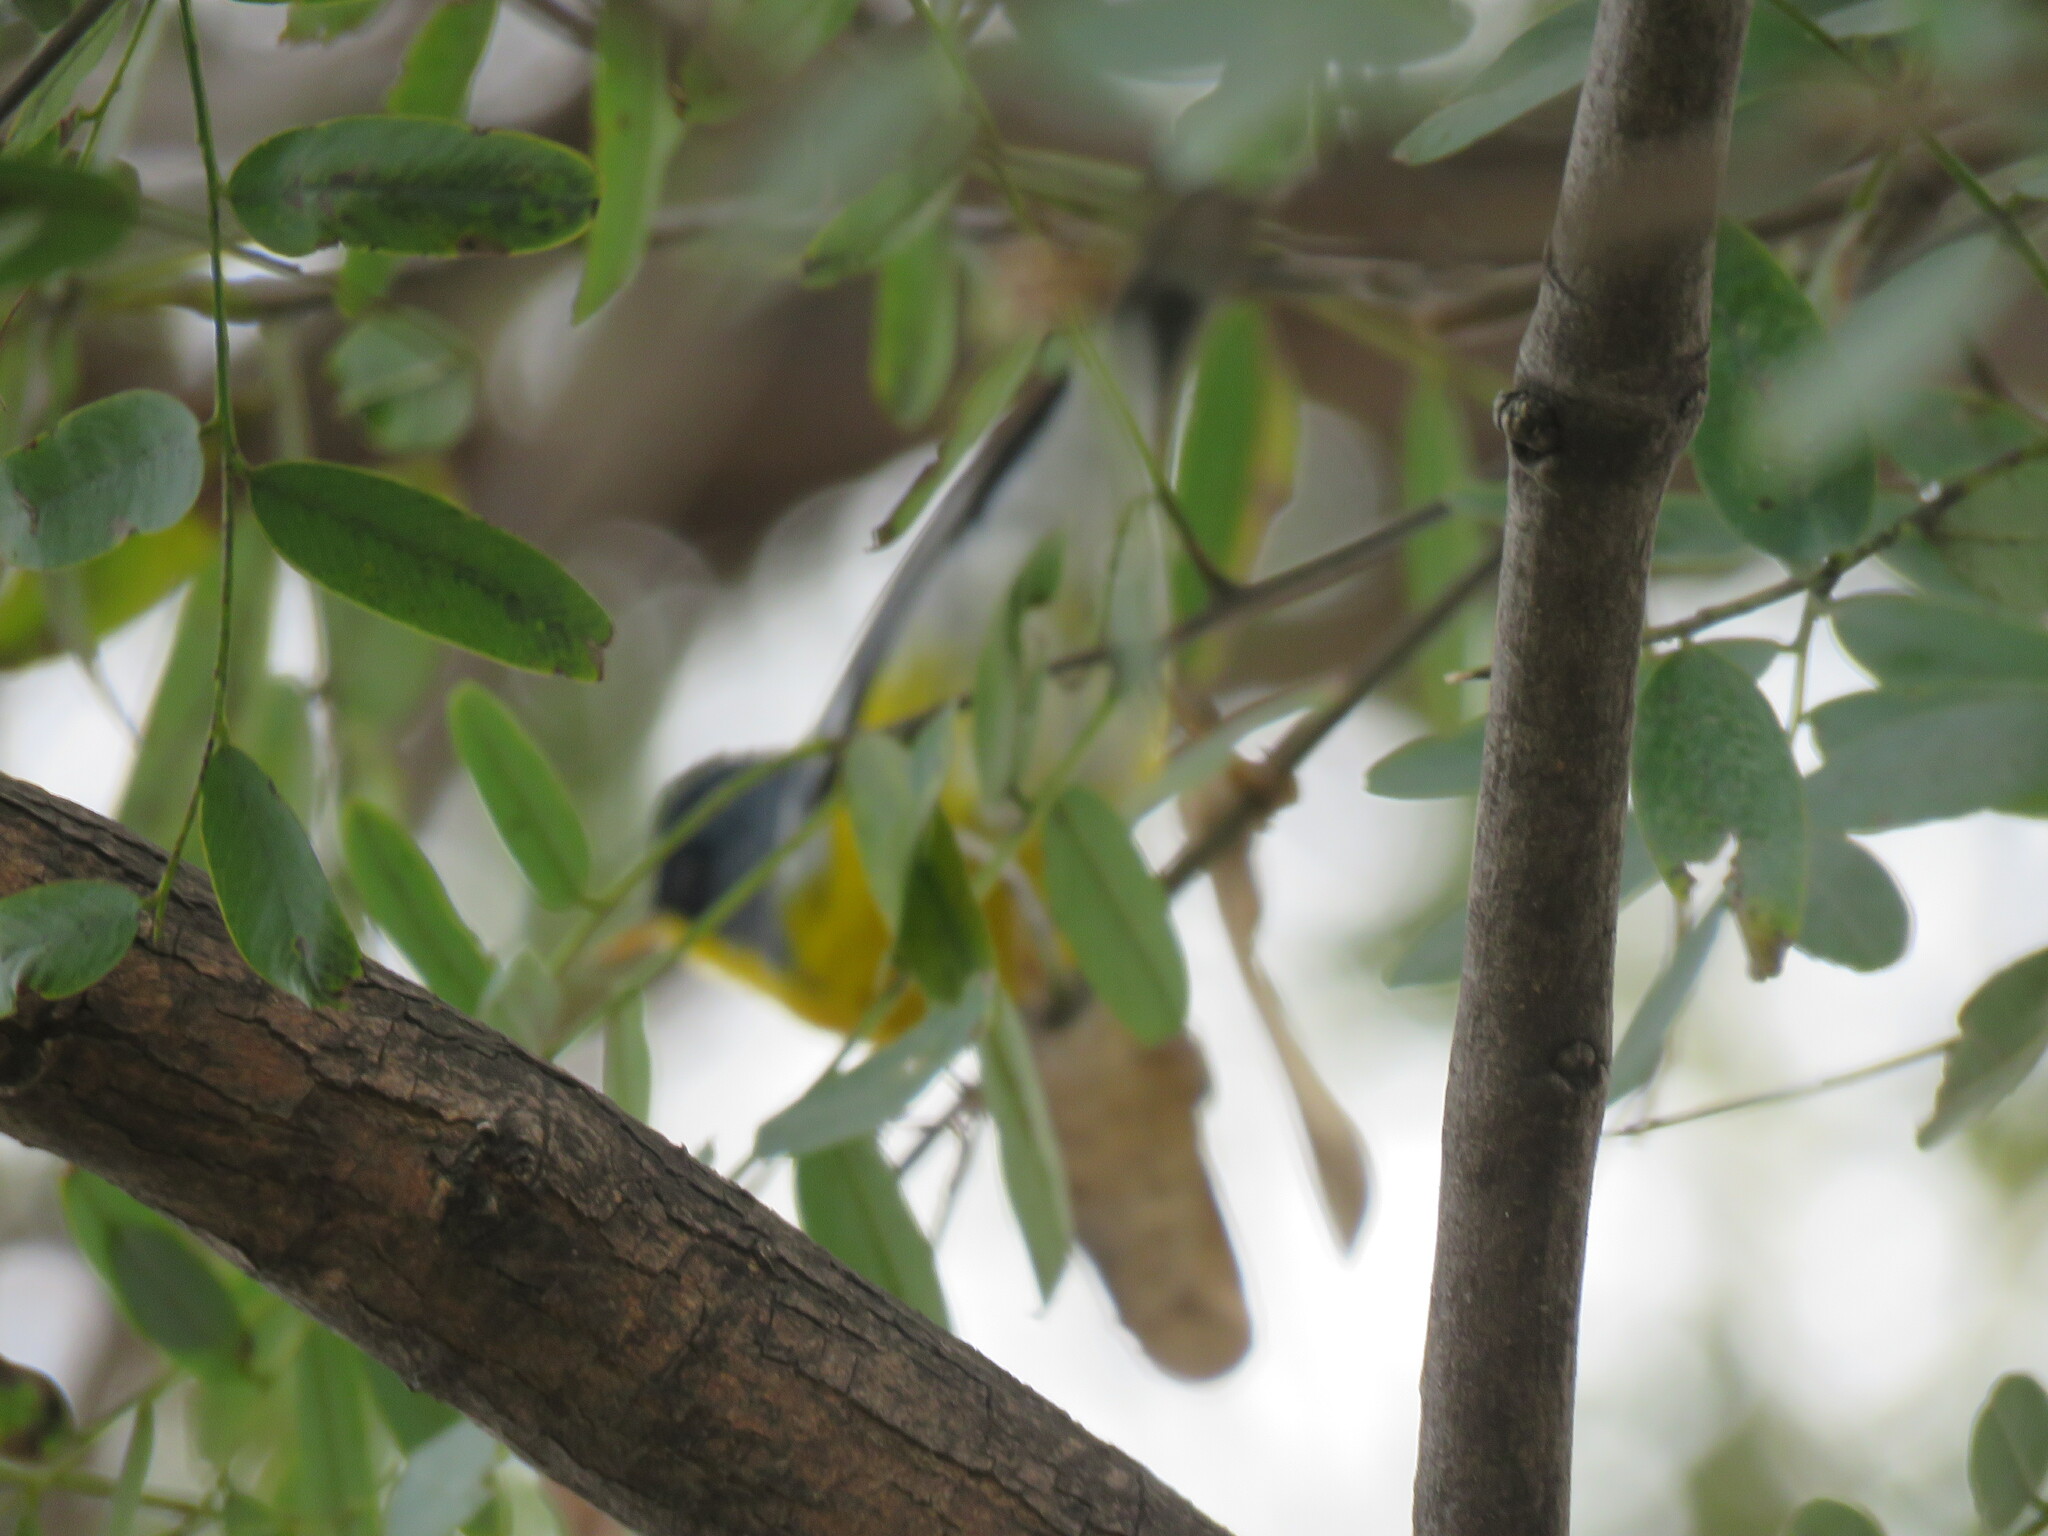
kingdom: Animalia
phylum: Chordata
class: Aves
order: Passeriformes
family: Parulidae
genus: Setophaga
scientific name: Setophaga pitiayumi
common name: Tropical parula
